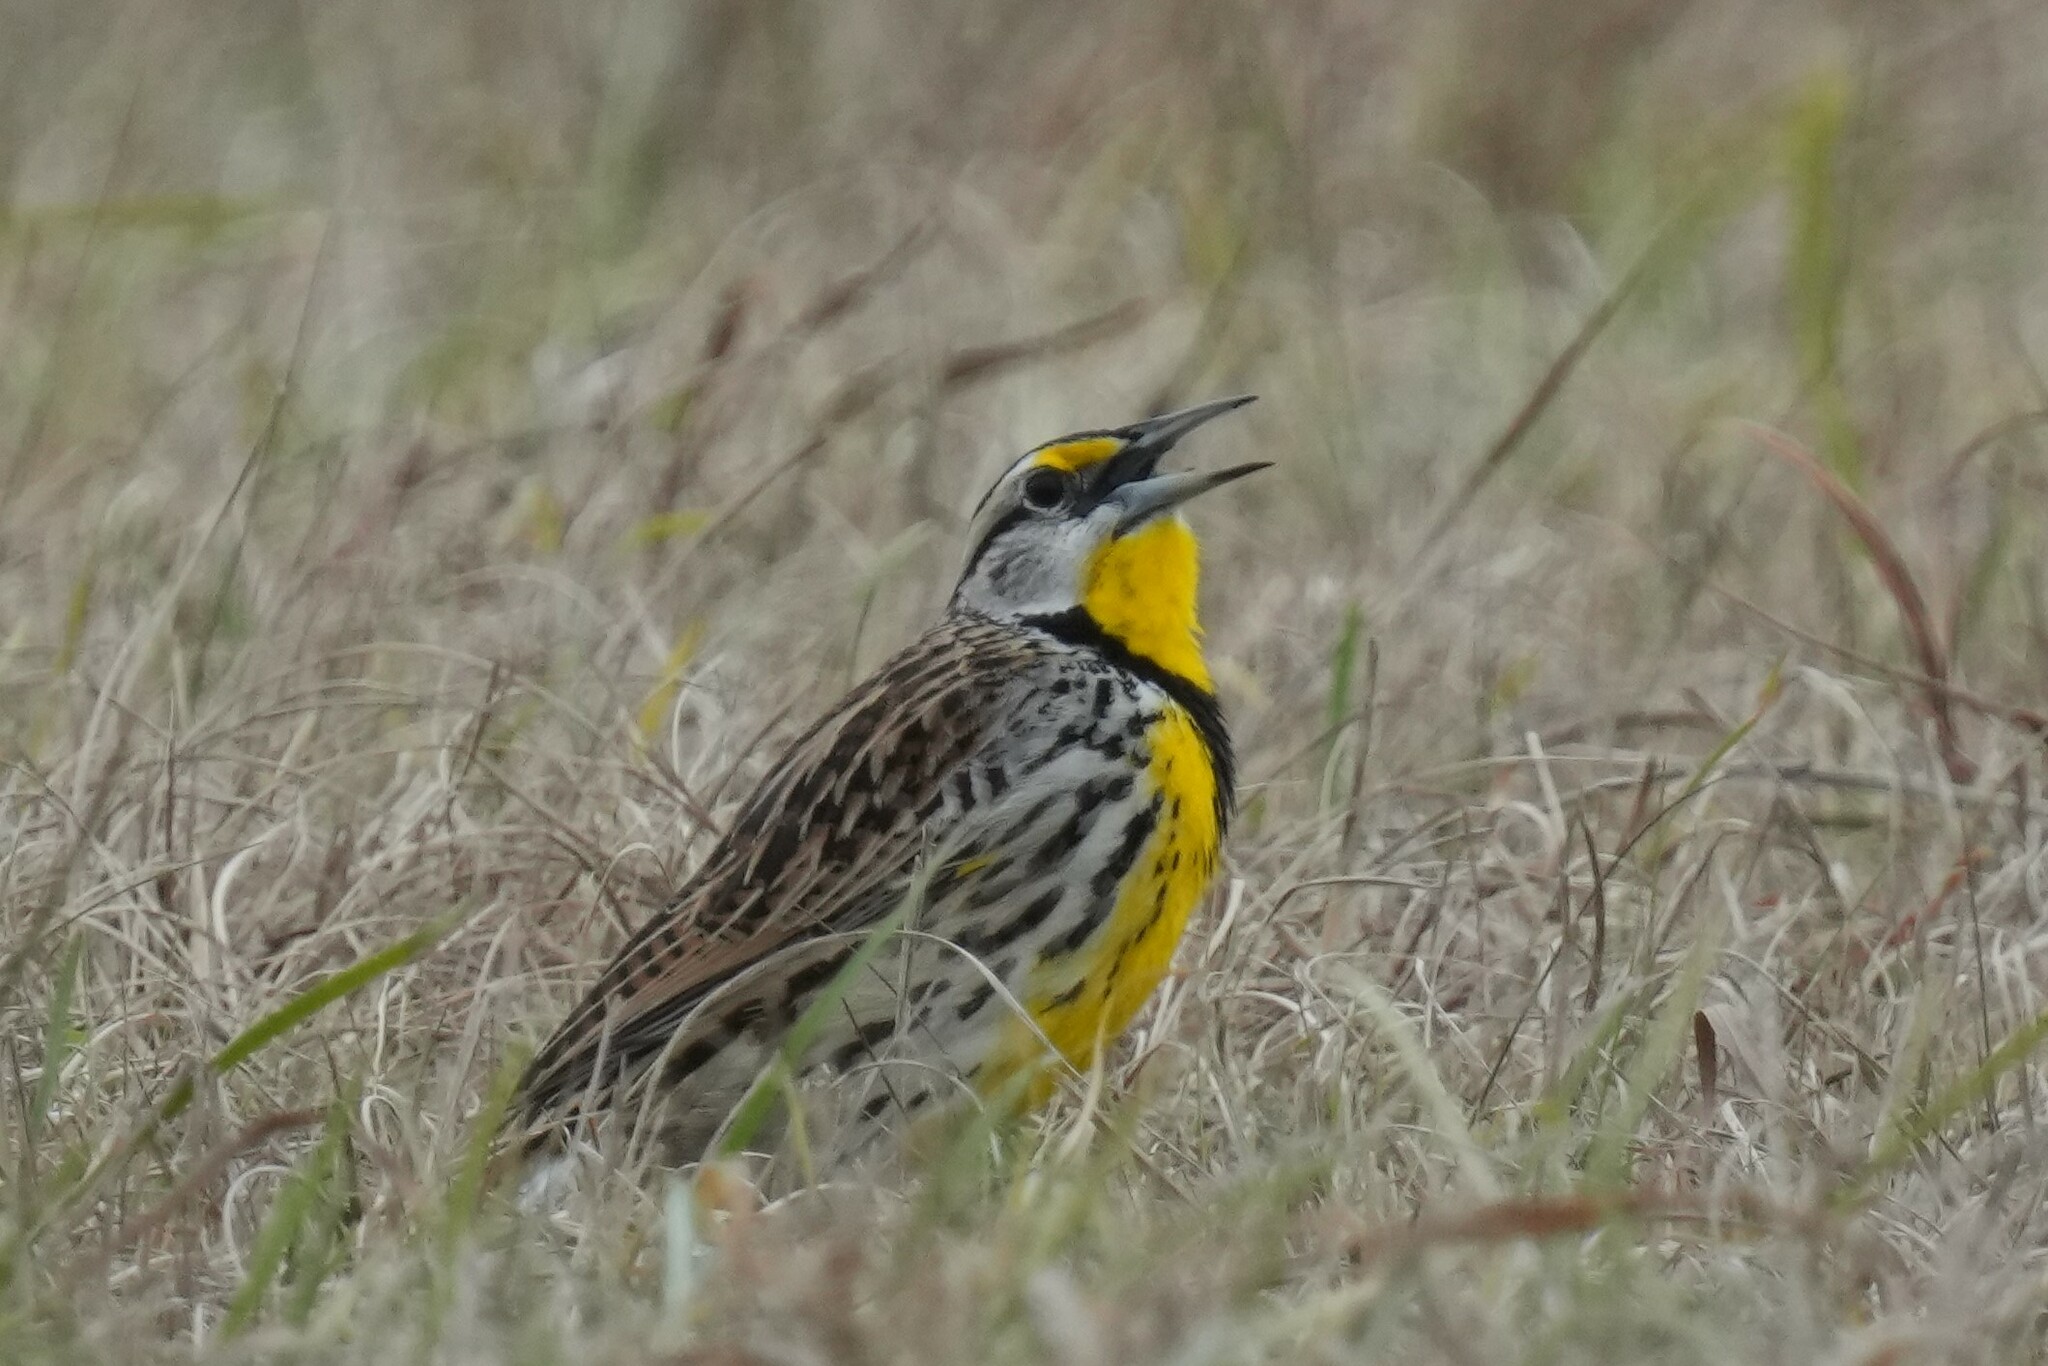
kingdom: Animalia
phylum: Chordata
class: Aves
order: Passeriformes
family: Icteridae
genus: Sturnella
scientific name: Sturnella magna
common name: Eastern meadowlark
